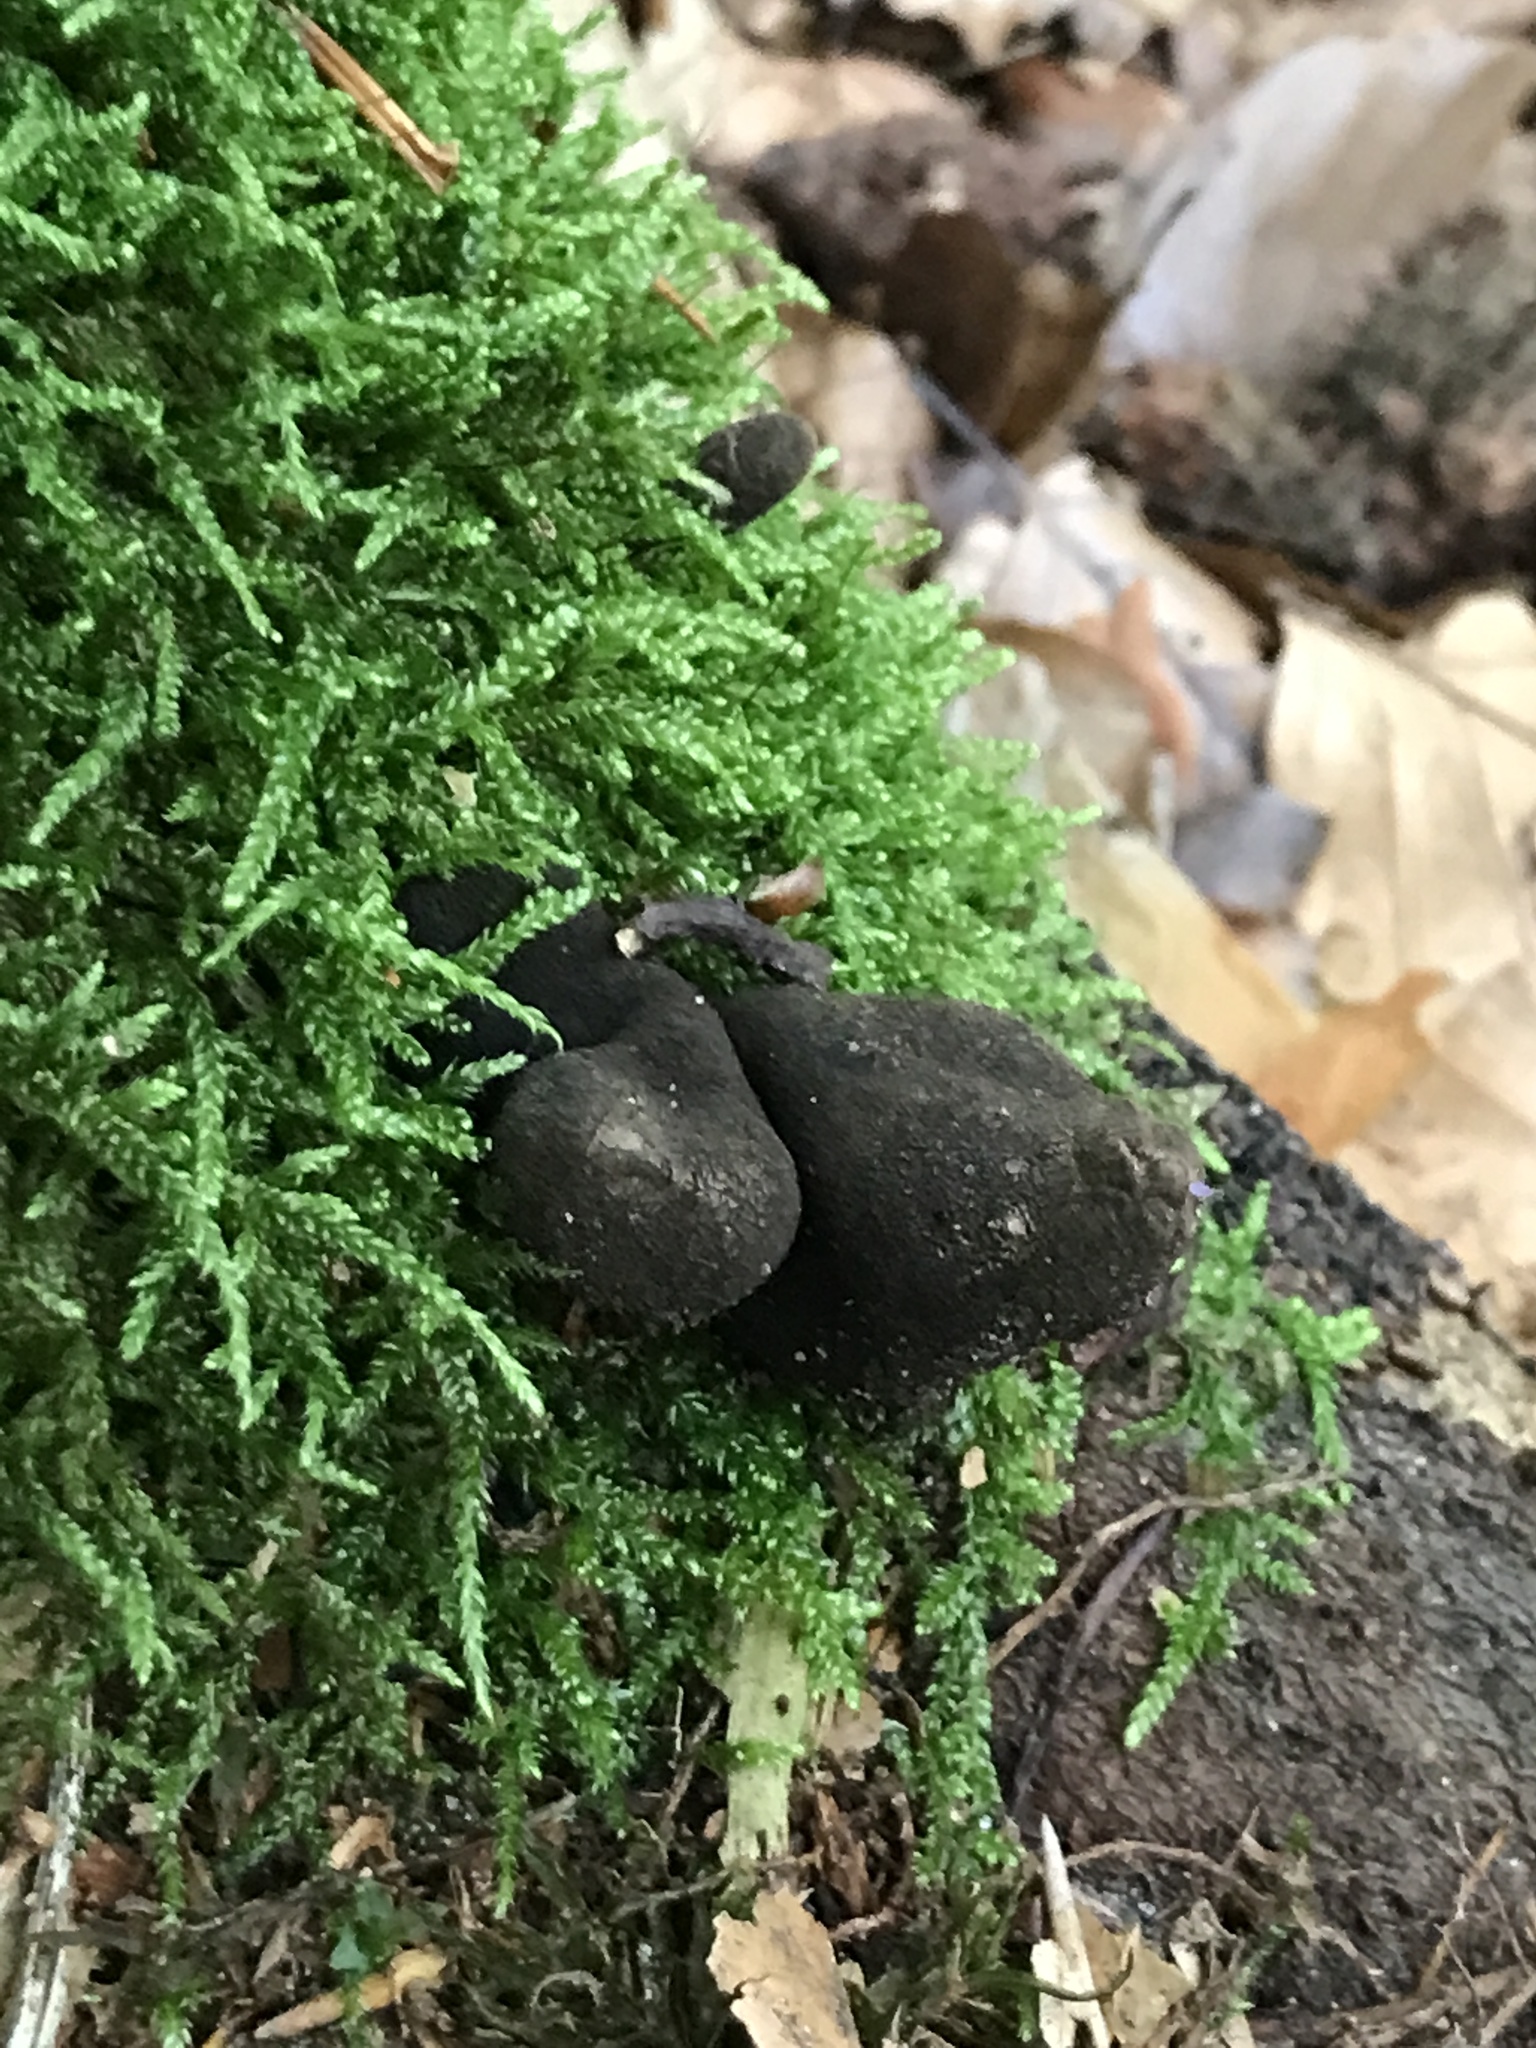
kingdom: Fungi
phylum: Ascomycota
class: Sordariomycetes
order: Xylariales
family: Xylariaceae
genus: Xylaria
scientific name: Xylaria polymorpha
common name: Dead man's fingers
